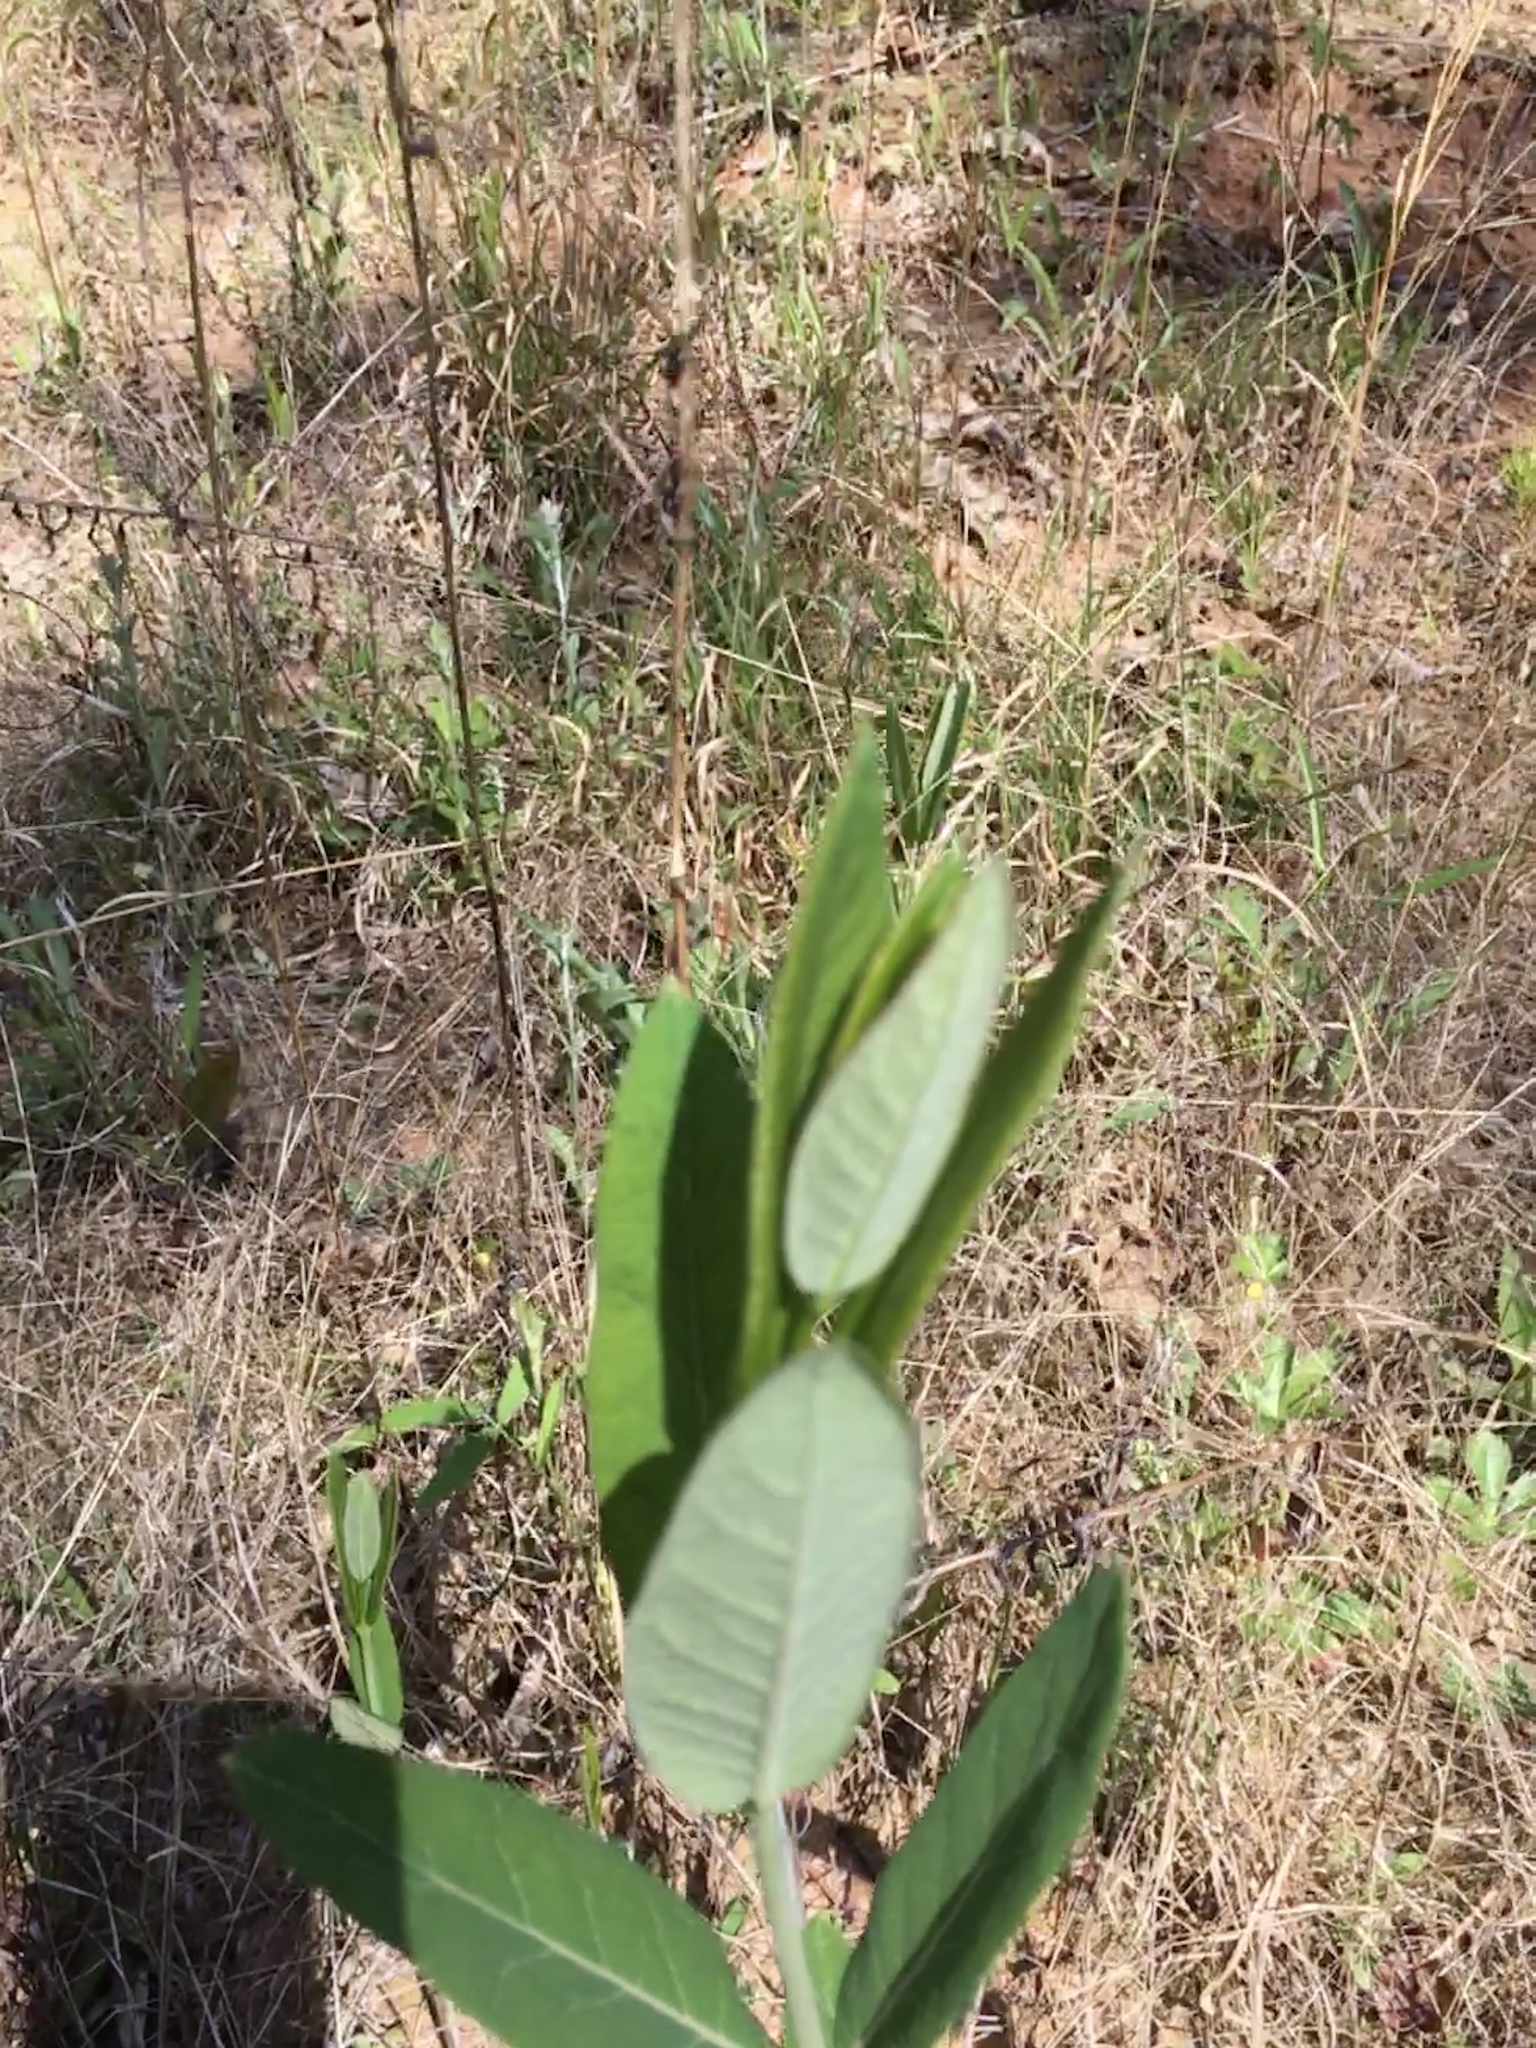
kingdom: Plantae
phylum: Tracheophyta
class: Magnoliopsida
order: Gentianales
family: Apocynaceae
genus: Apocynum
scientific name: Apocynum cannabinum
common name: Hemp dogbane
